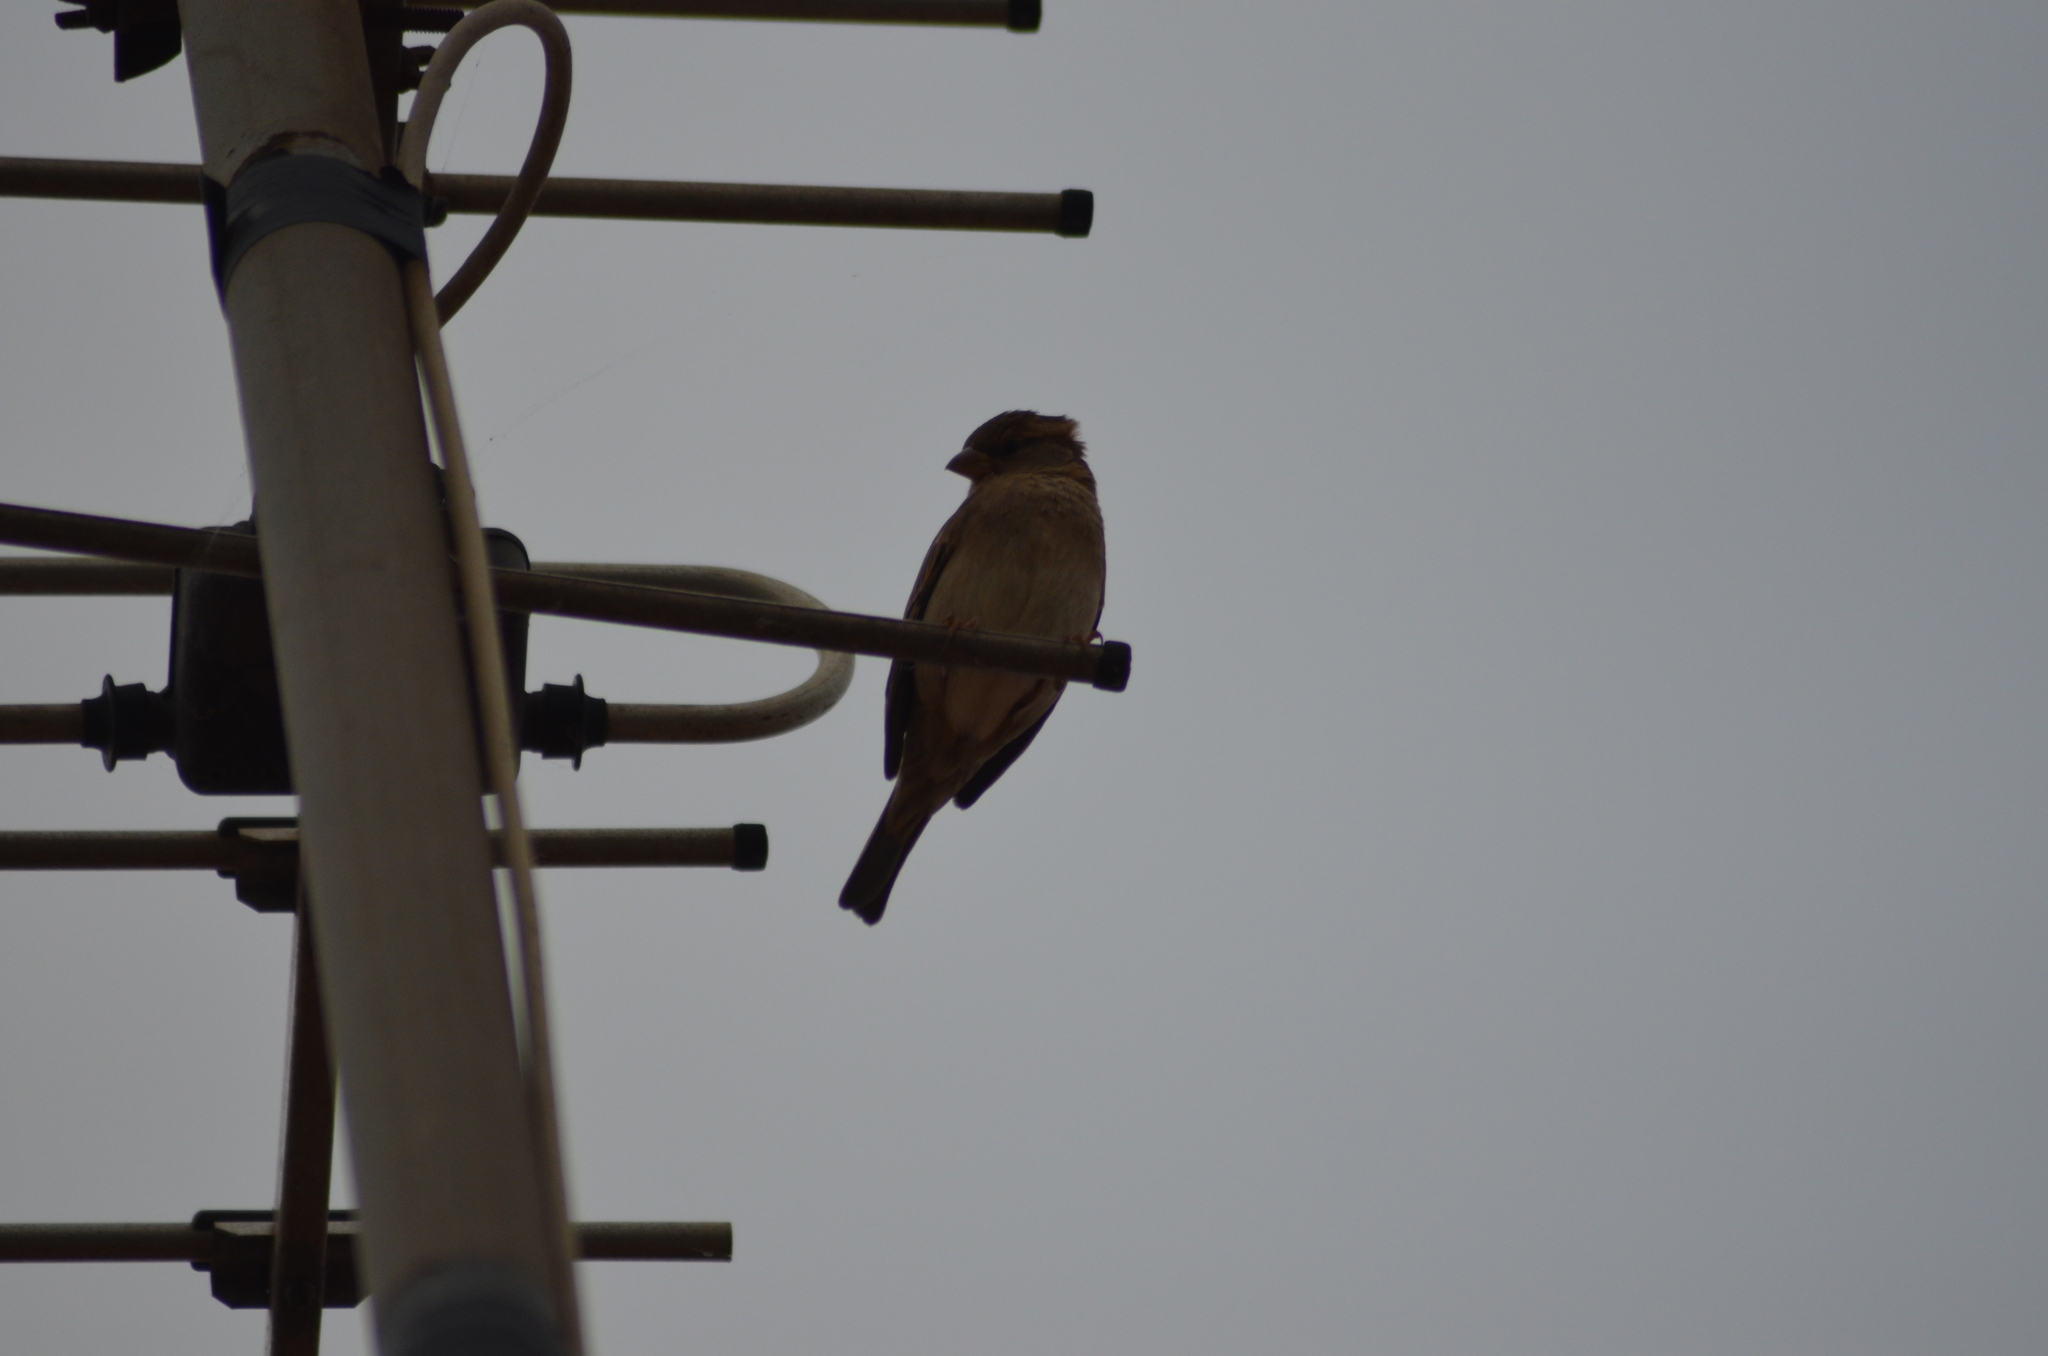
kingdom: Animalia
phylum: Chordata
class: Aves
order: Passeriformes
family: Passeridae
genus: Passer
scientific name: Passer domesticus
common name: House sparrow
